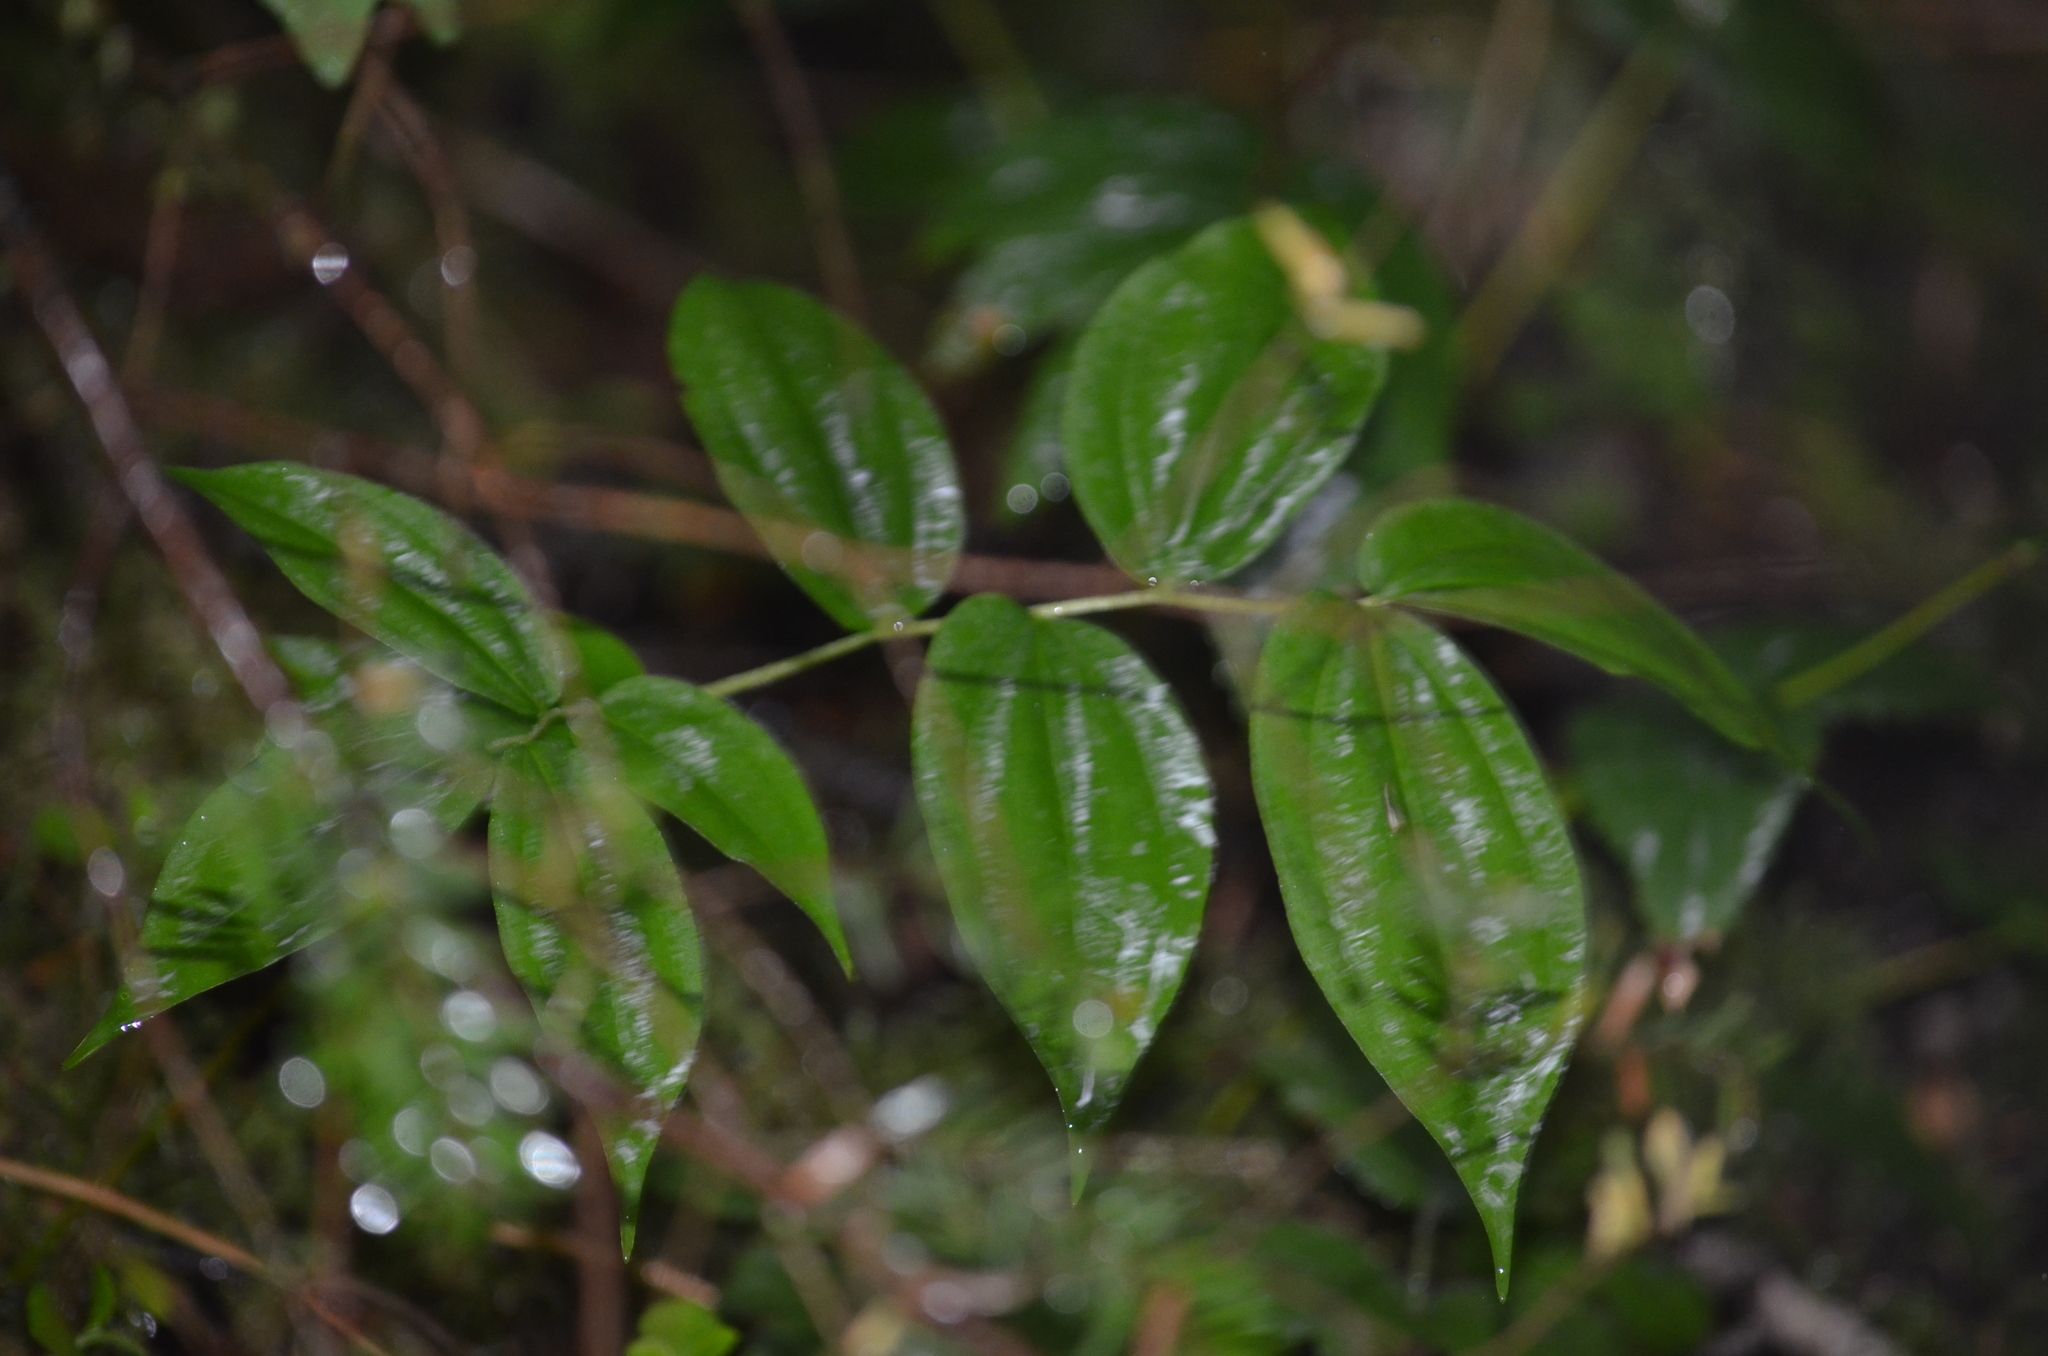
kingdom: Plantae
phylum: Tracheophyta
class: Liliopsida
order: Liliales
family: Liliaceae
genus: Prosartes
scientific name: Prosartes smithii
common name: Fairy-lantern
